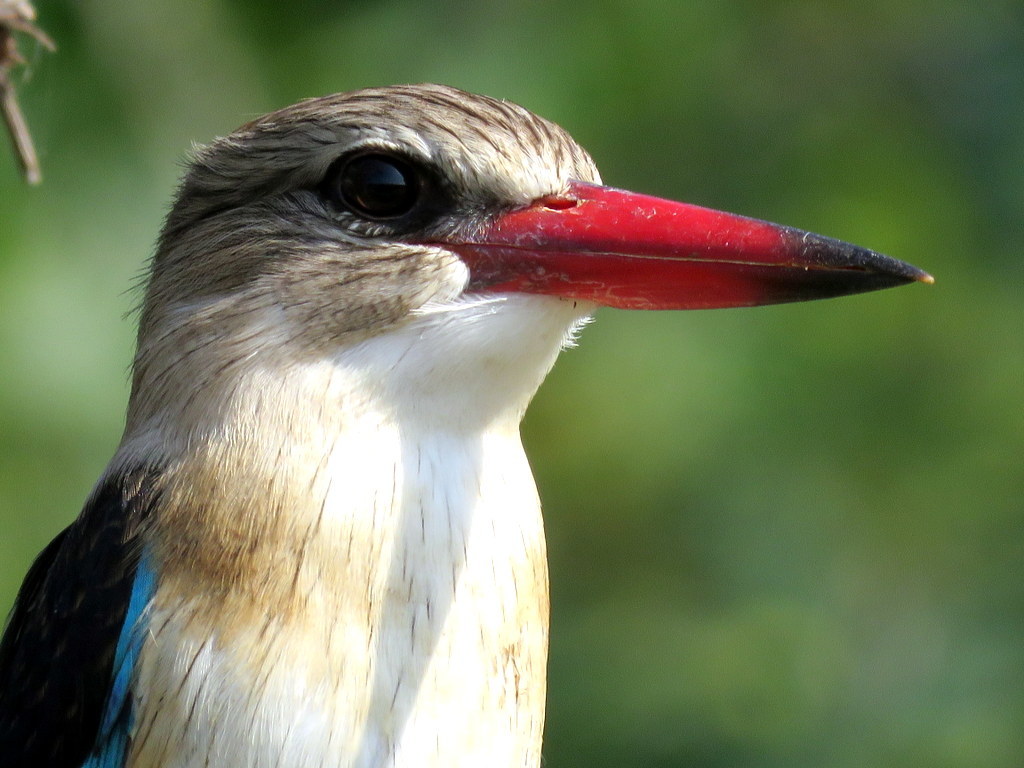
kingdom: Animalia
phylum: Chordata
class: Aves
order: Coraciiformes
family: Alcedinidae
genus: Halcyon
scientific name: Halcyon albiventris
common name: Brown-hooded kingfisher
